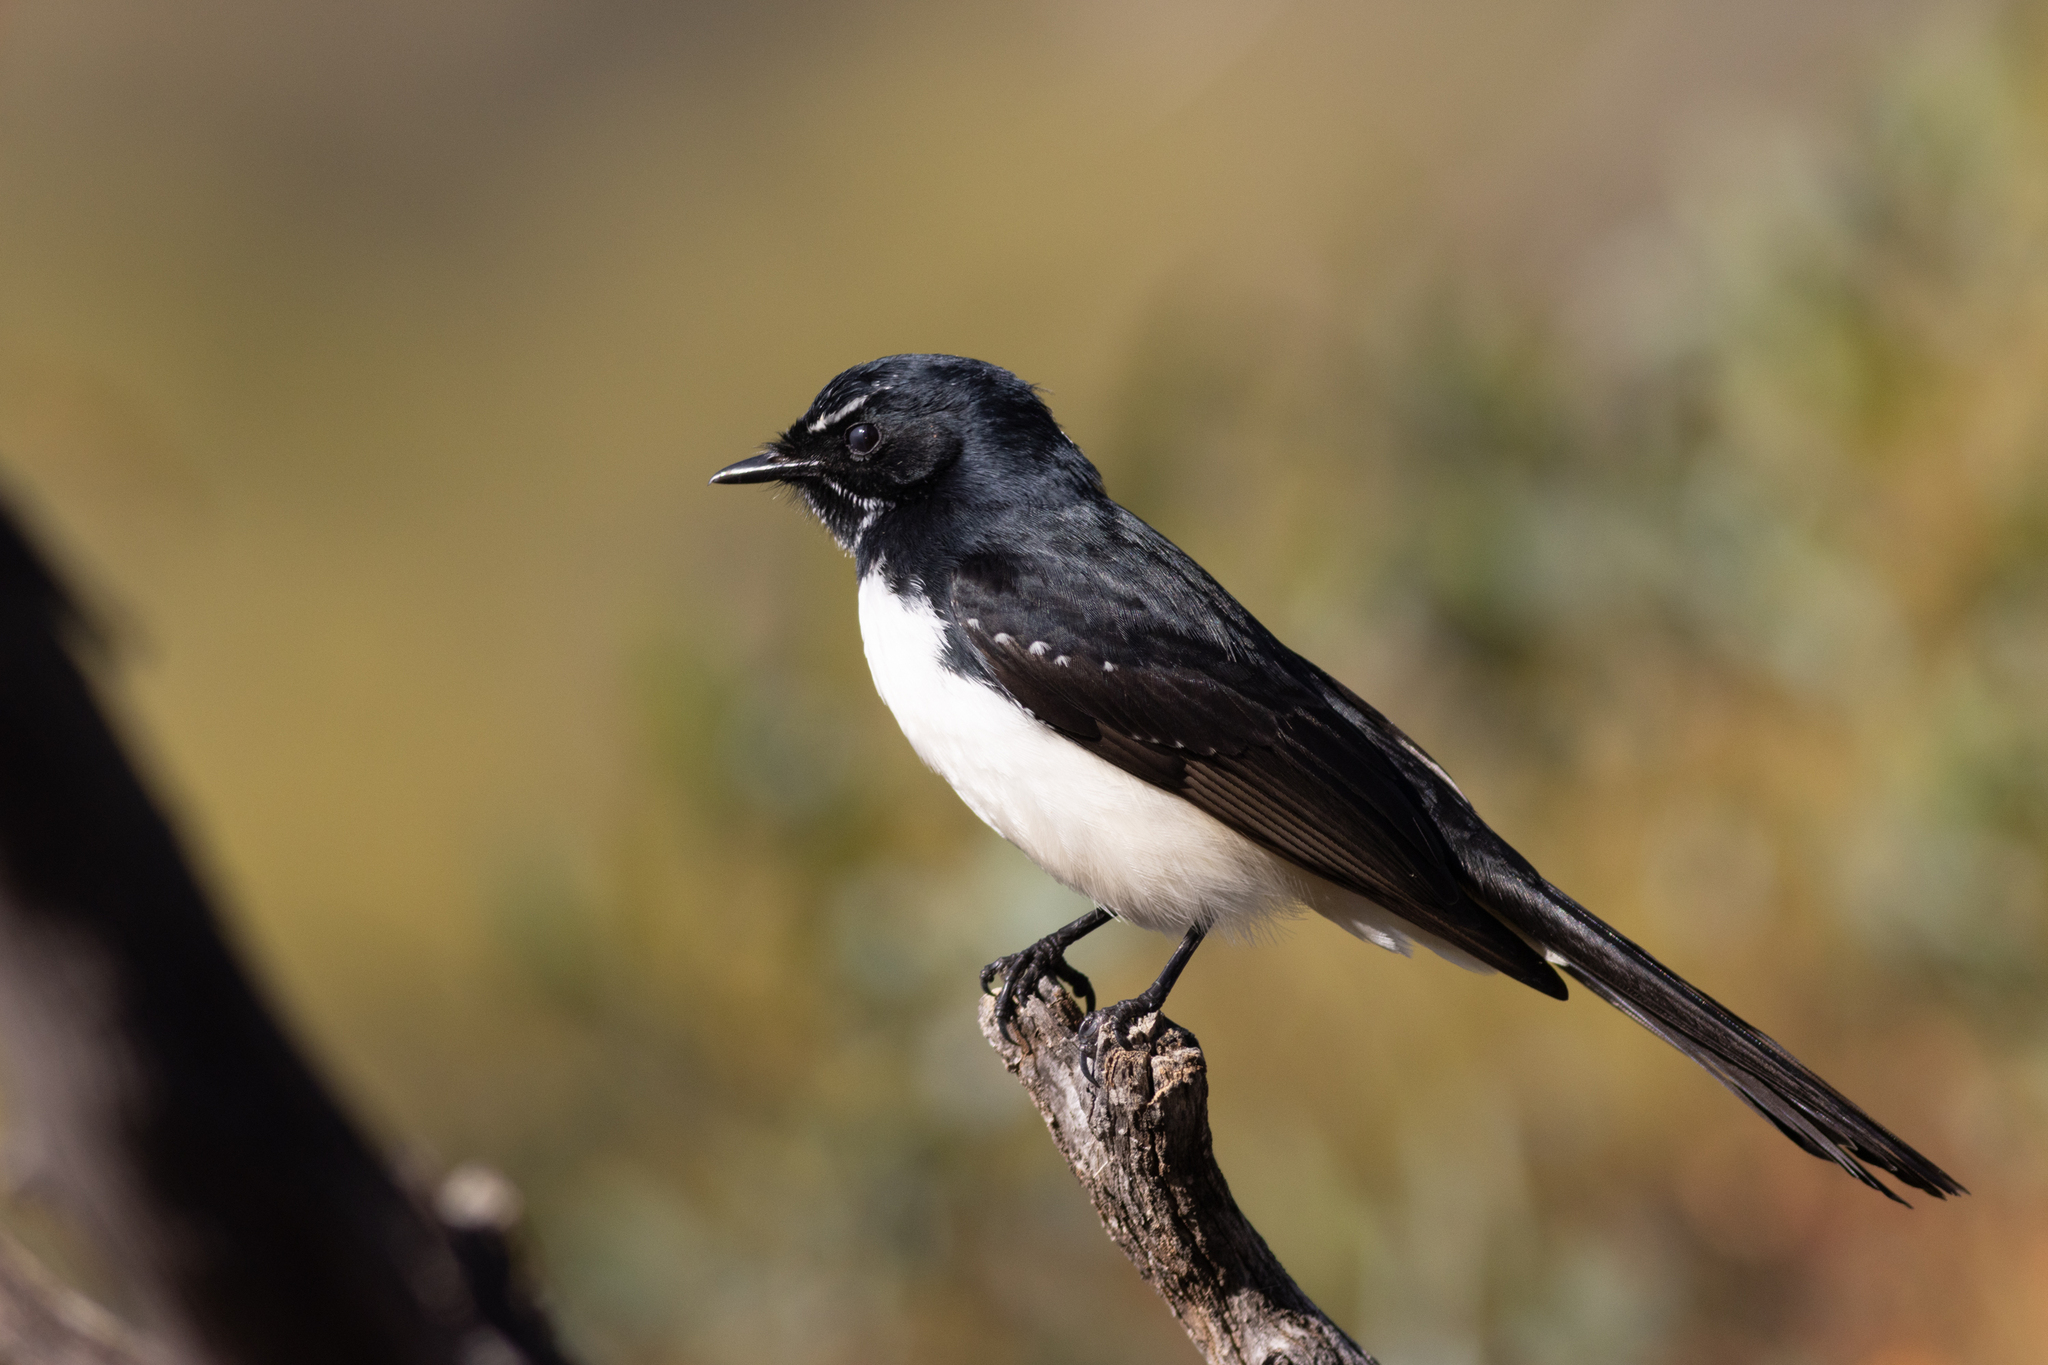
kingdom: Animalia
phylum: Chordata
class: Aves
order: Passeriformes
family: Rhipiduridae
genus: Rhipidura
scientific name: Rhipidura leucophrys
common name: Willie wagtail
